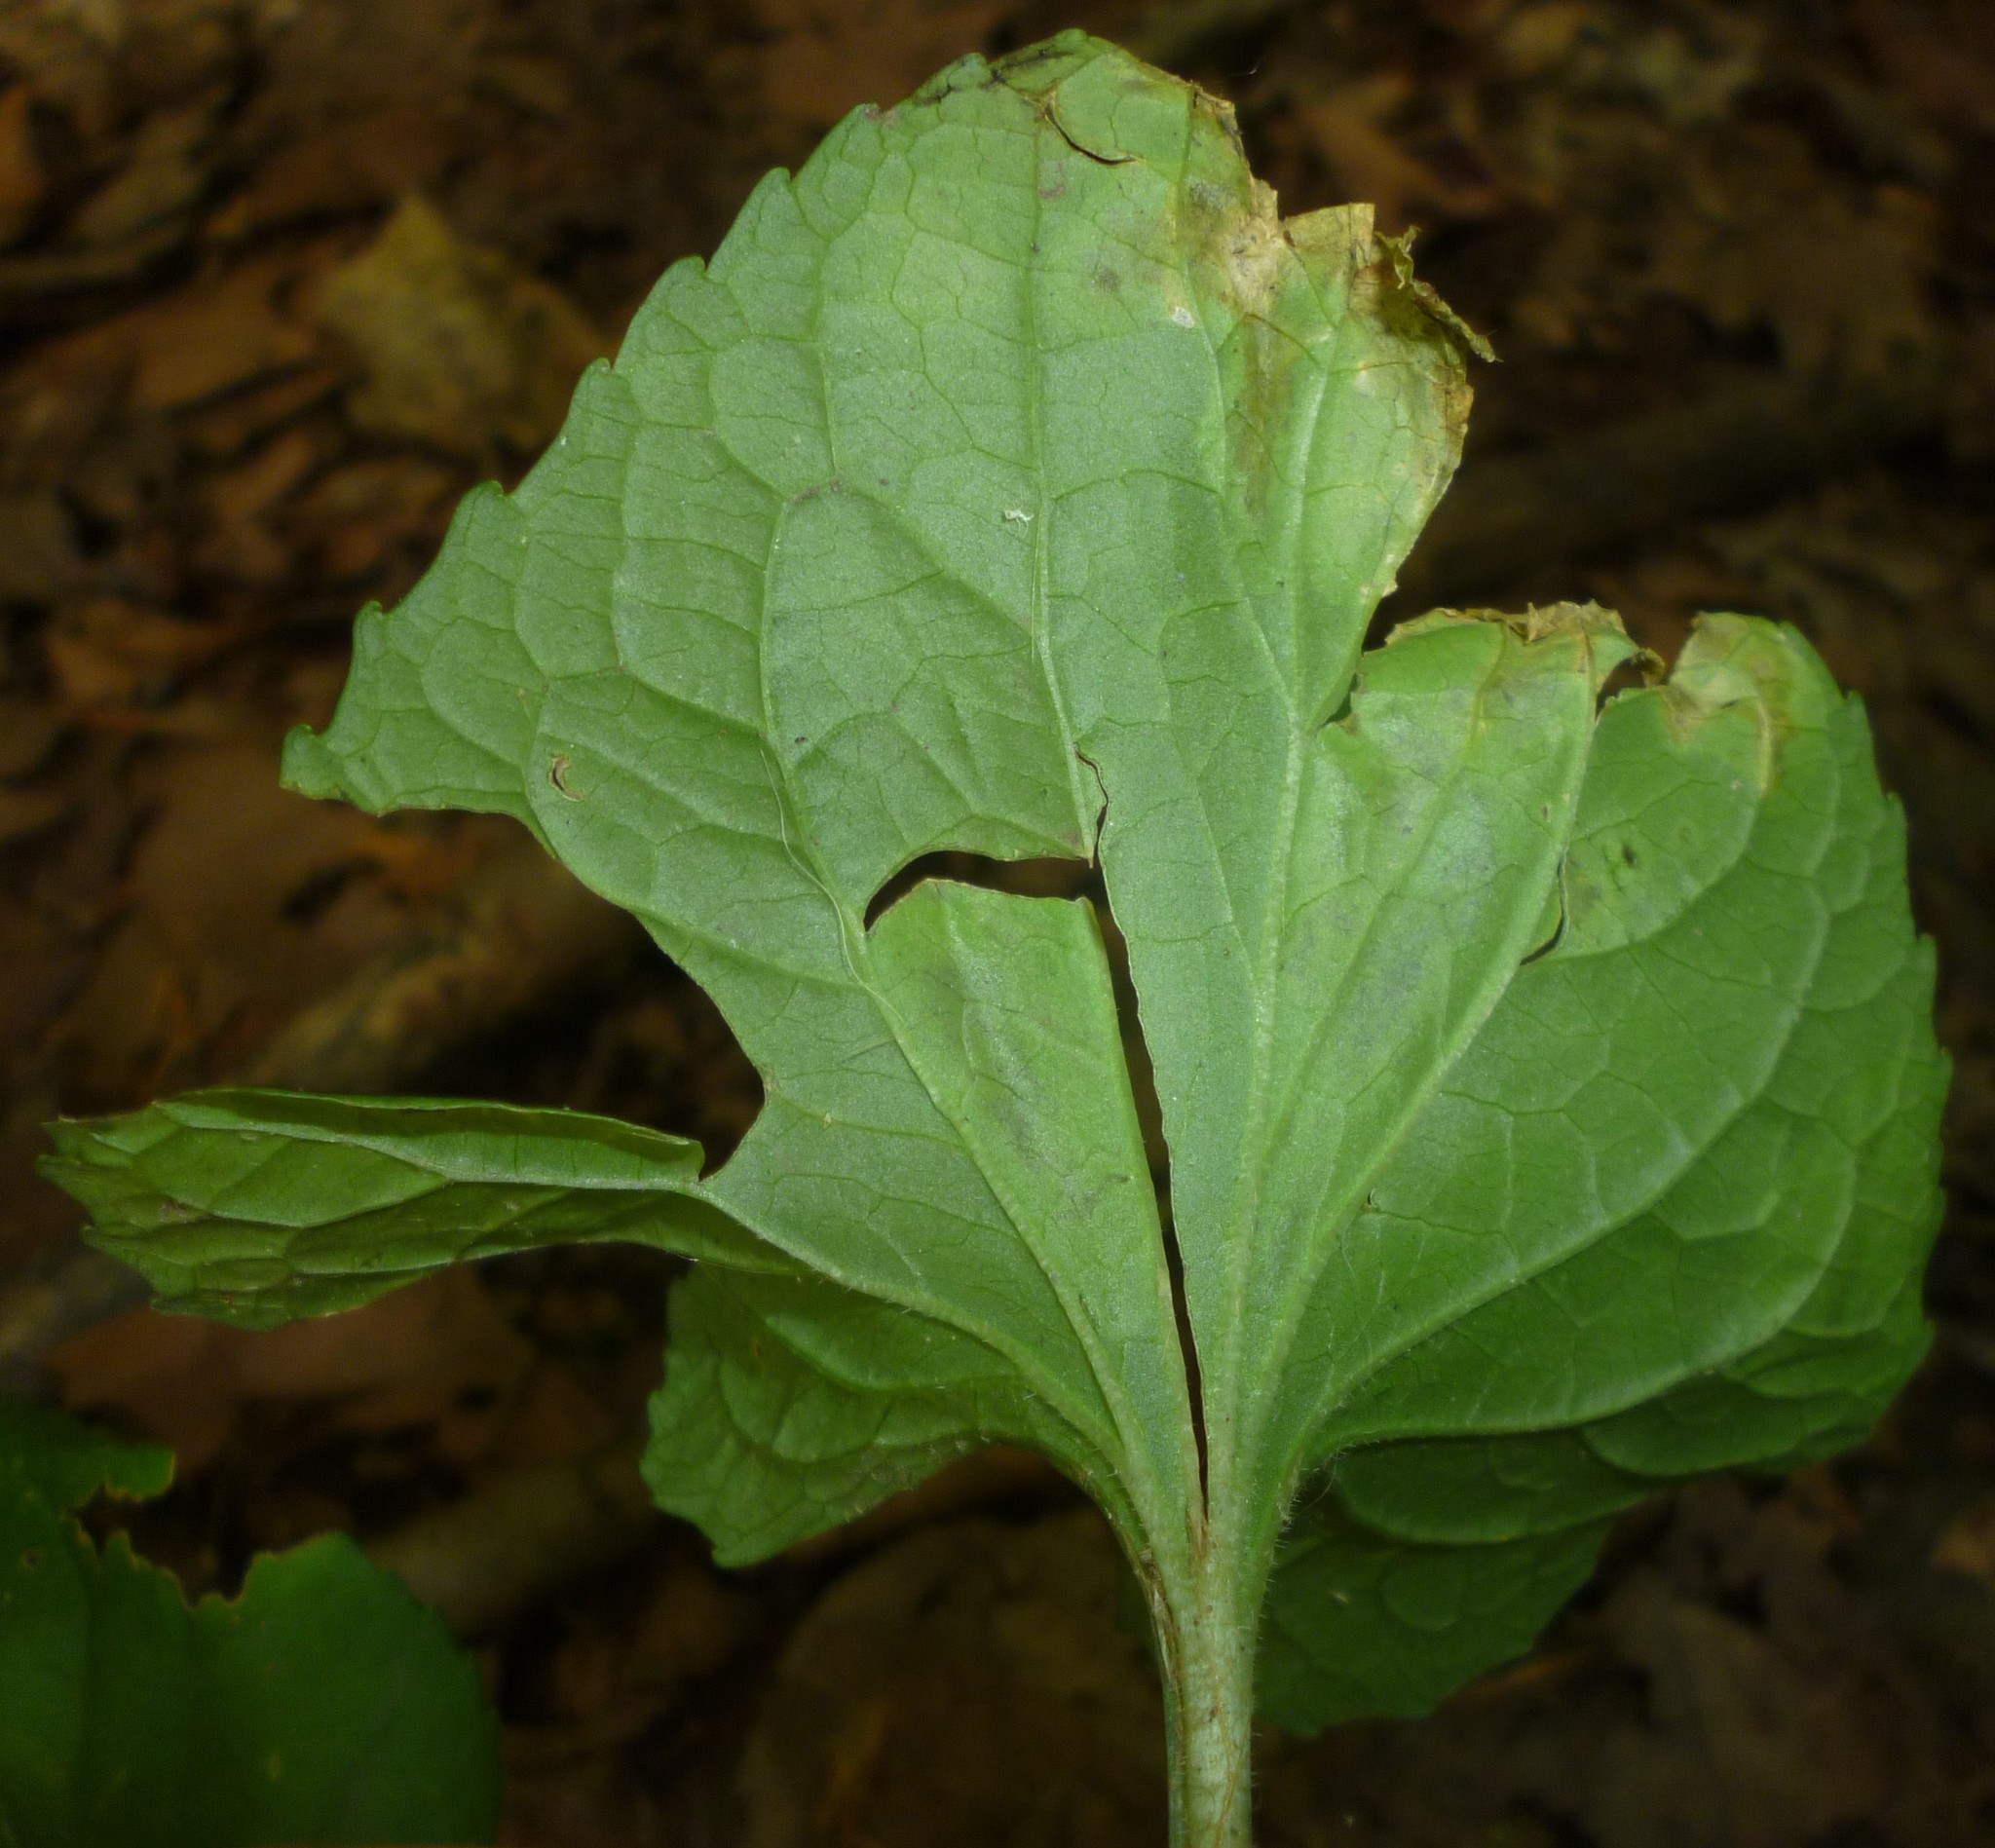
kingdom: Animalia
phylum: Arthropoda
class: Insecta
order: Diptera
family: Agromyzidae
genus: Liriomyza
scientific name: Liriomyza violivora
